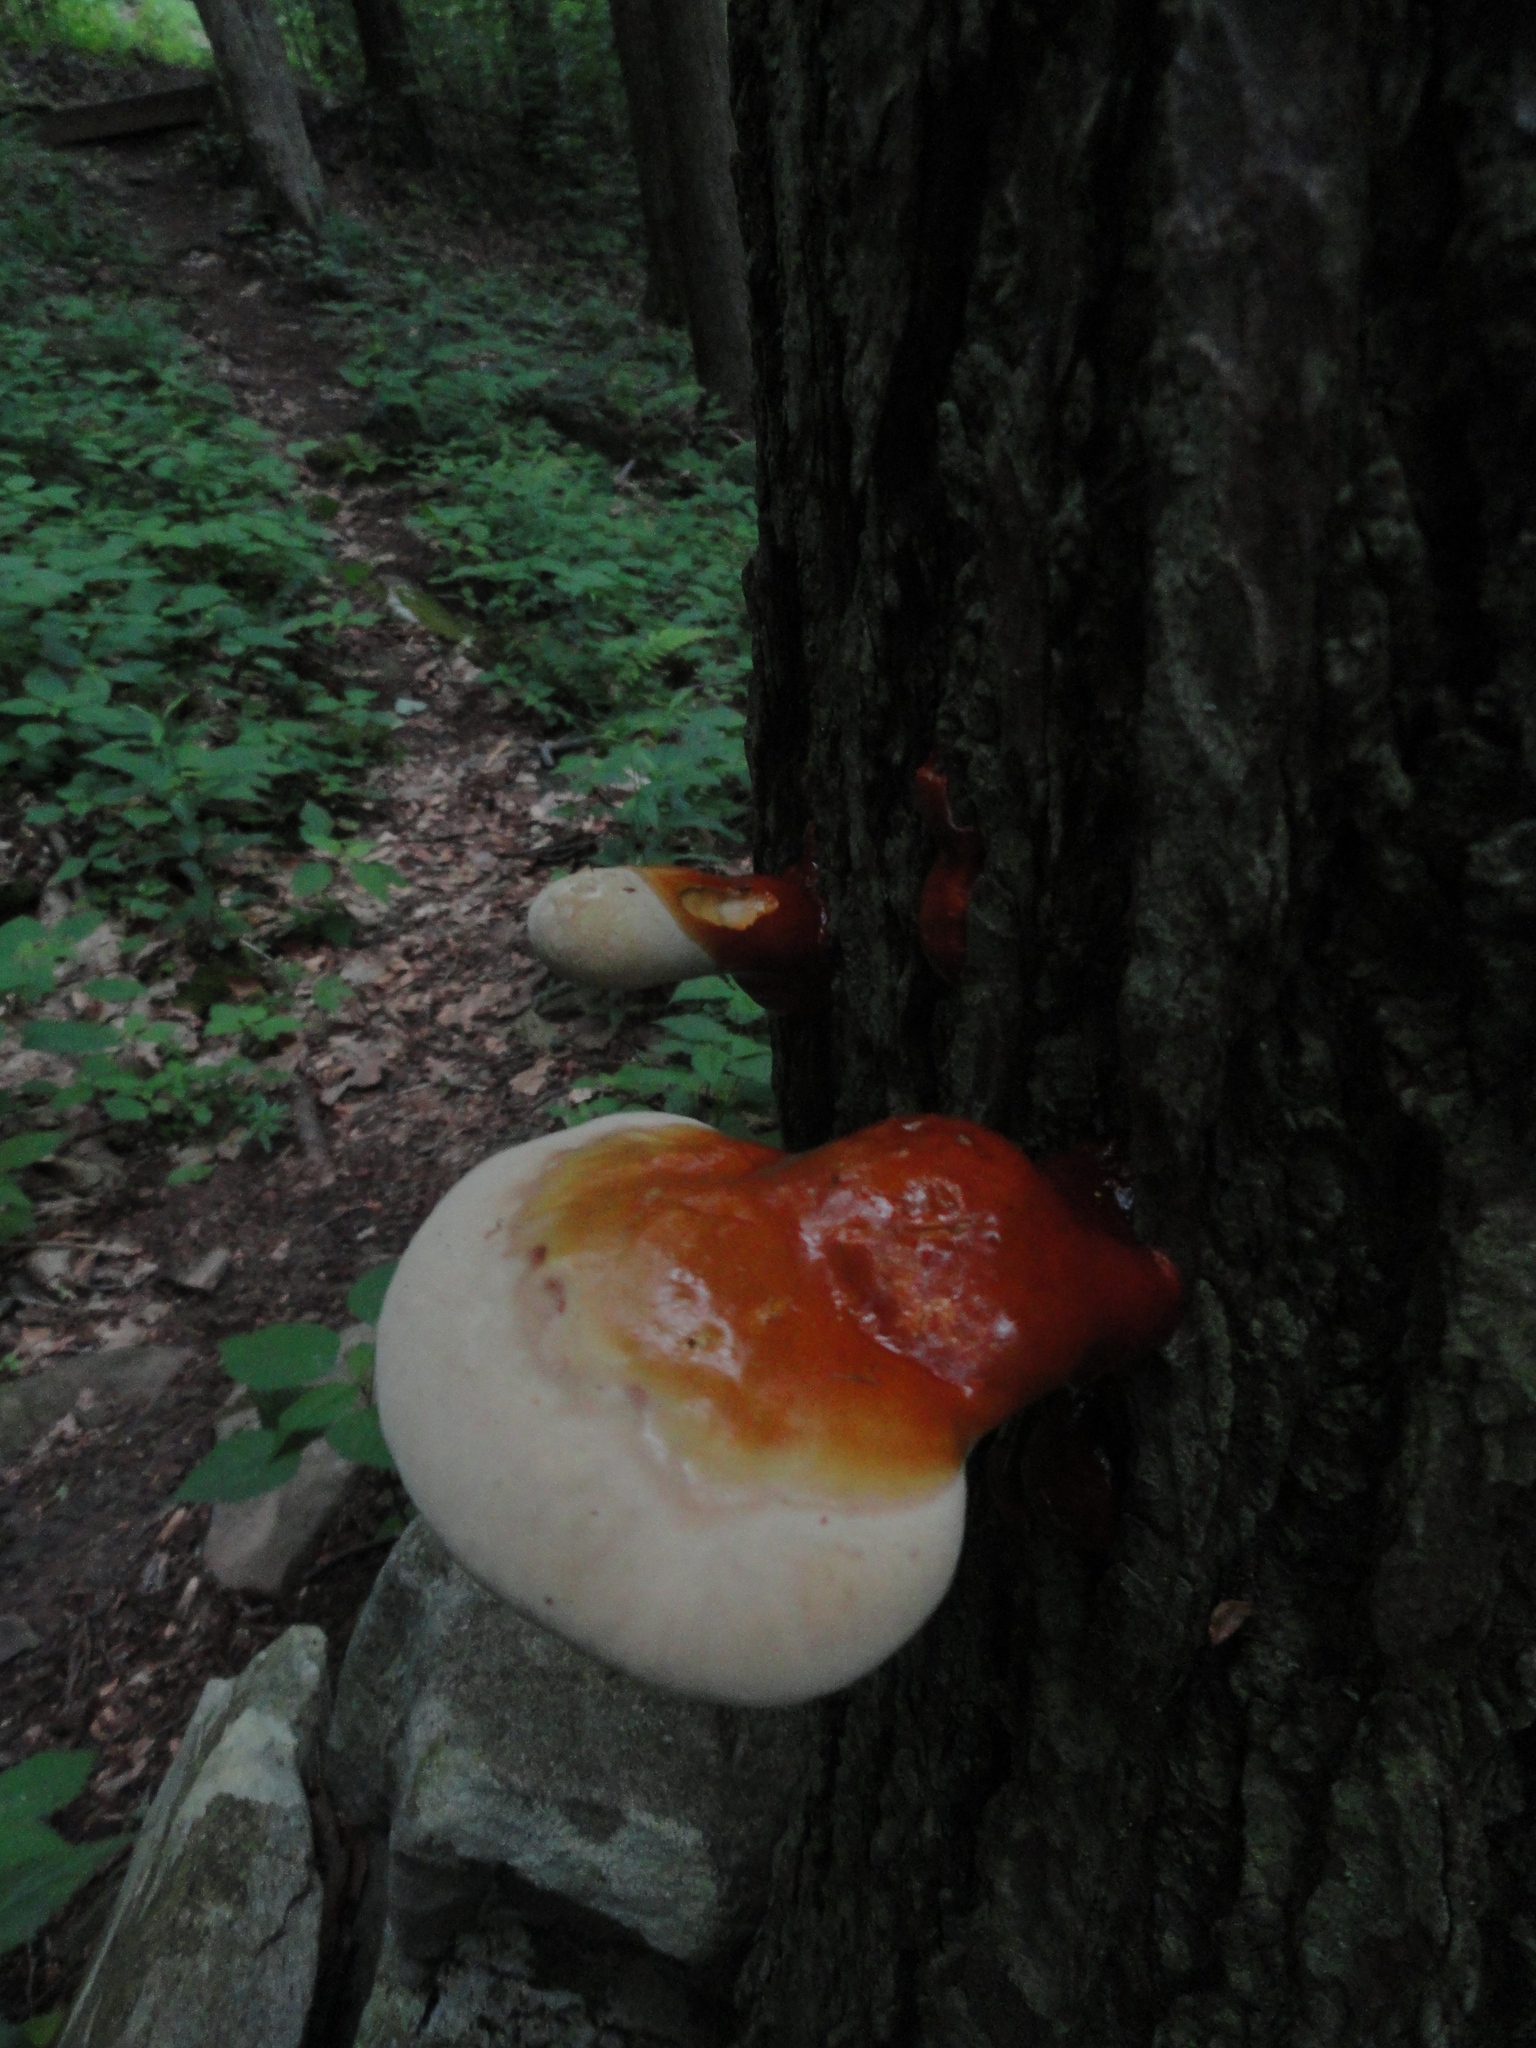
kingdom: Fungi
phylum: Basidiomycota
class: Agaricomycetes
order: Polyporales
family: Polyporaceae
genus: Ganoderma
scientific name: Ganoderma tsugae
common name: Hemlock varnish shelf
